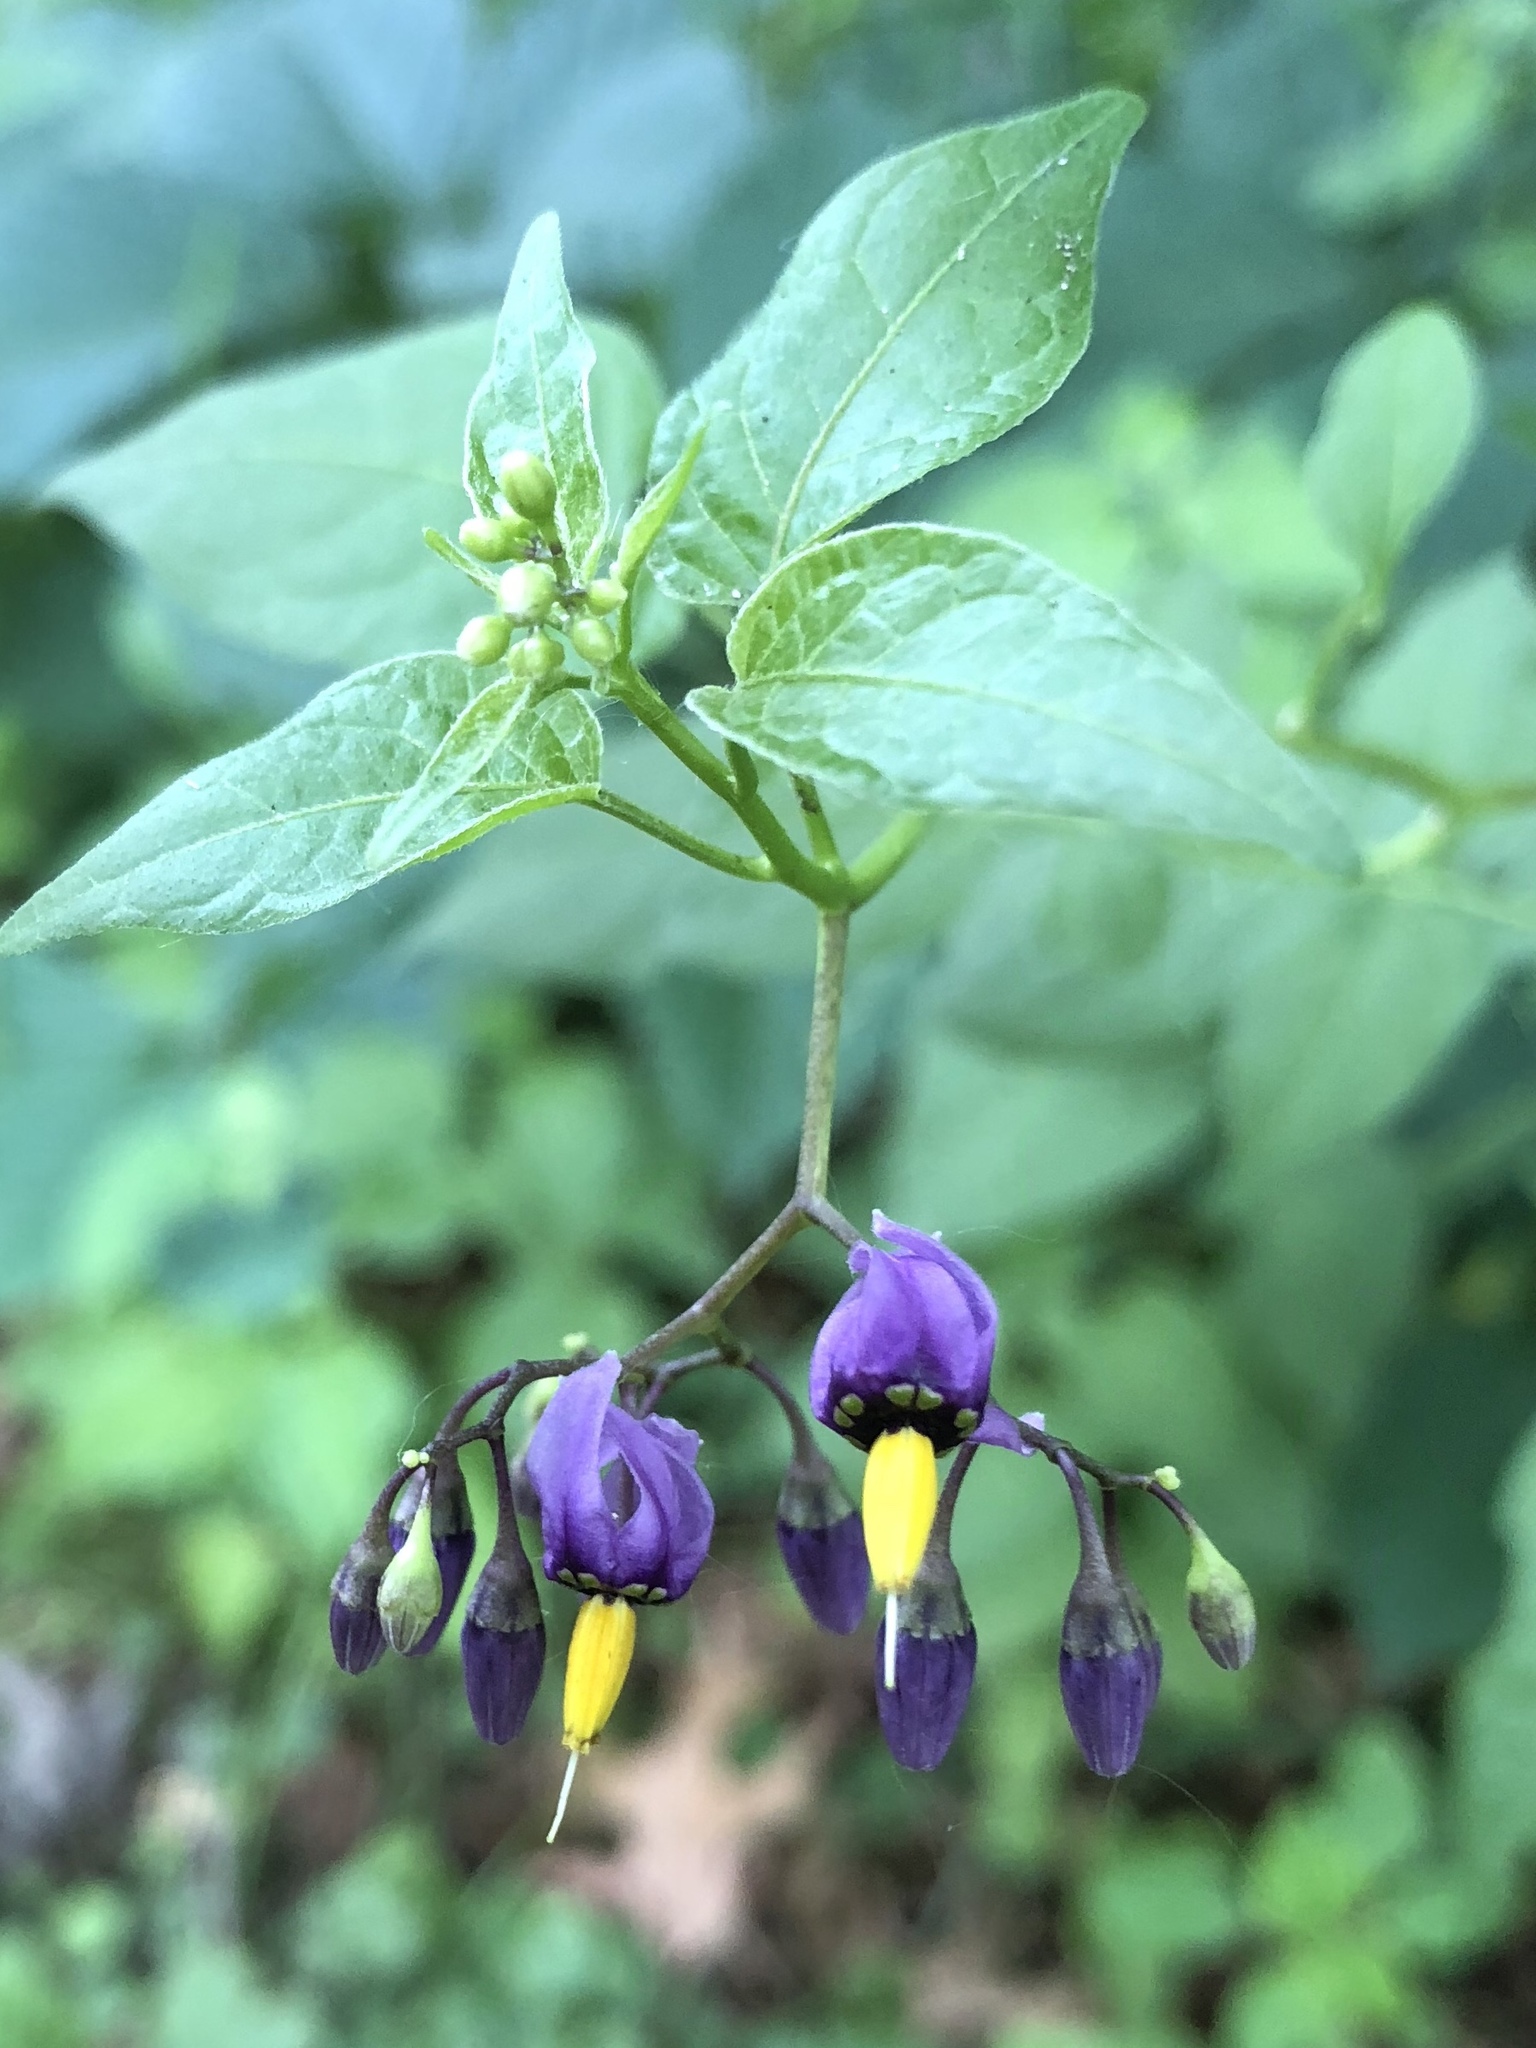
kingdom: Plantae
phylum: Tracheophyta
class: Magnoliopsida
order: Solanales
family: Solanaceae
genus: Solanum
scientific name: Solanum dulcamara
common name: Climbing nightshade
